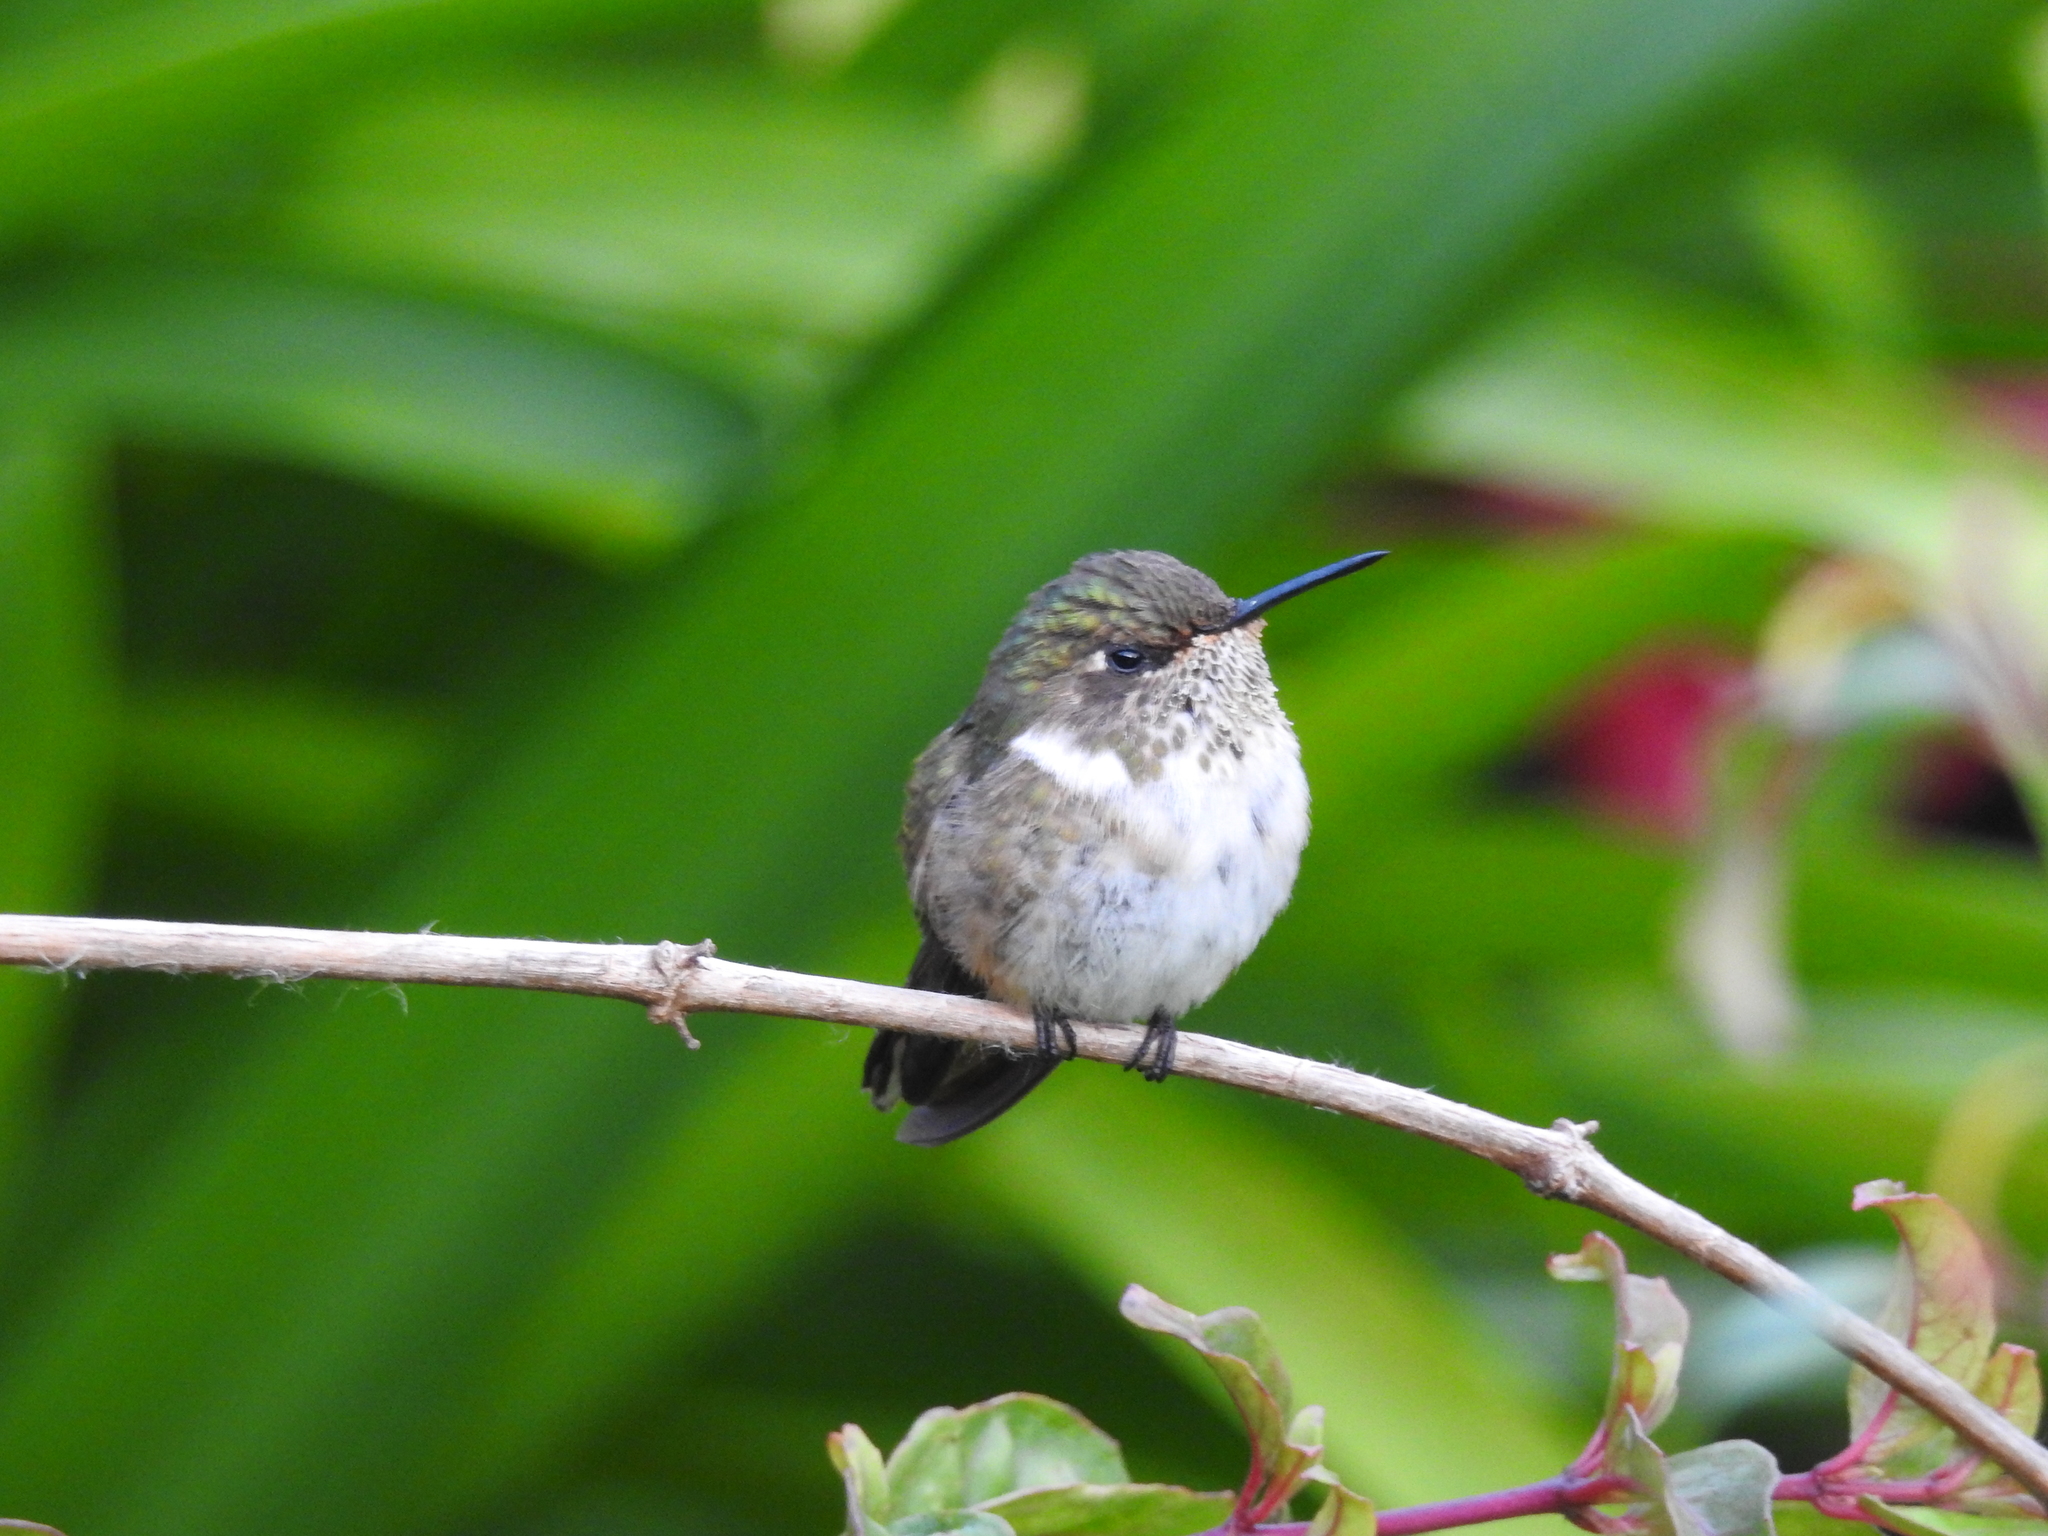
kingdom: Animalia
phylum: Chordata
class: Aves
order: Apodiformes
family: Trochilidae
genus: Selasphorus
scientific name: Selasphorus flammula
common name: Volcano hummingbird
